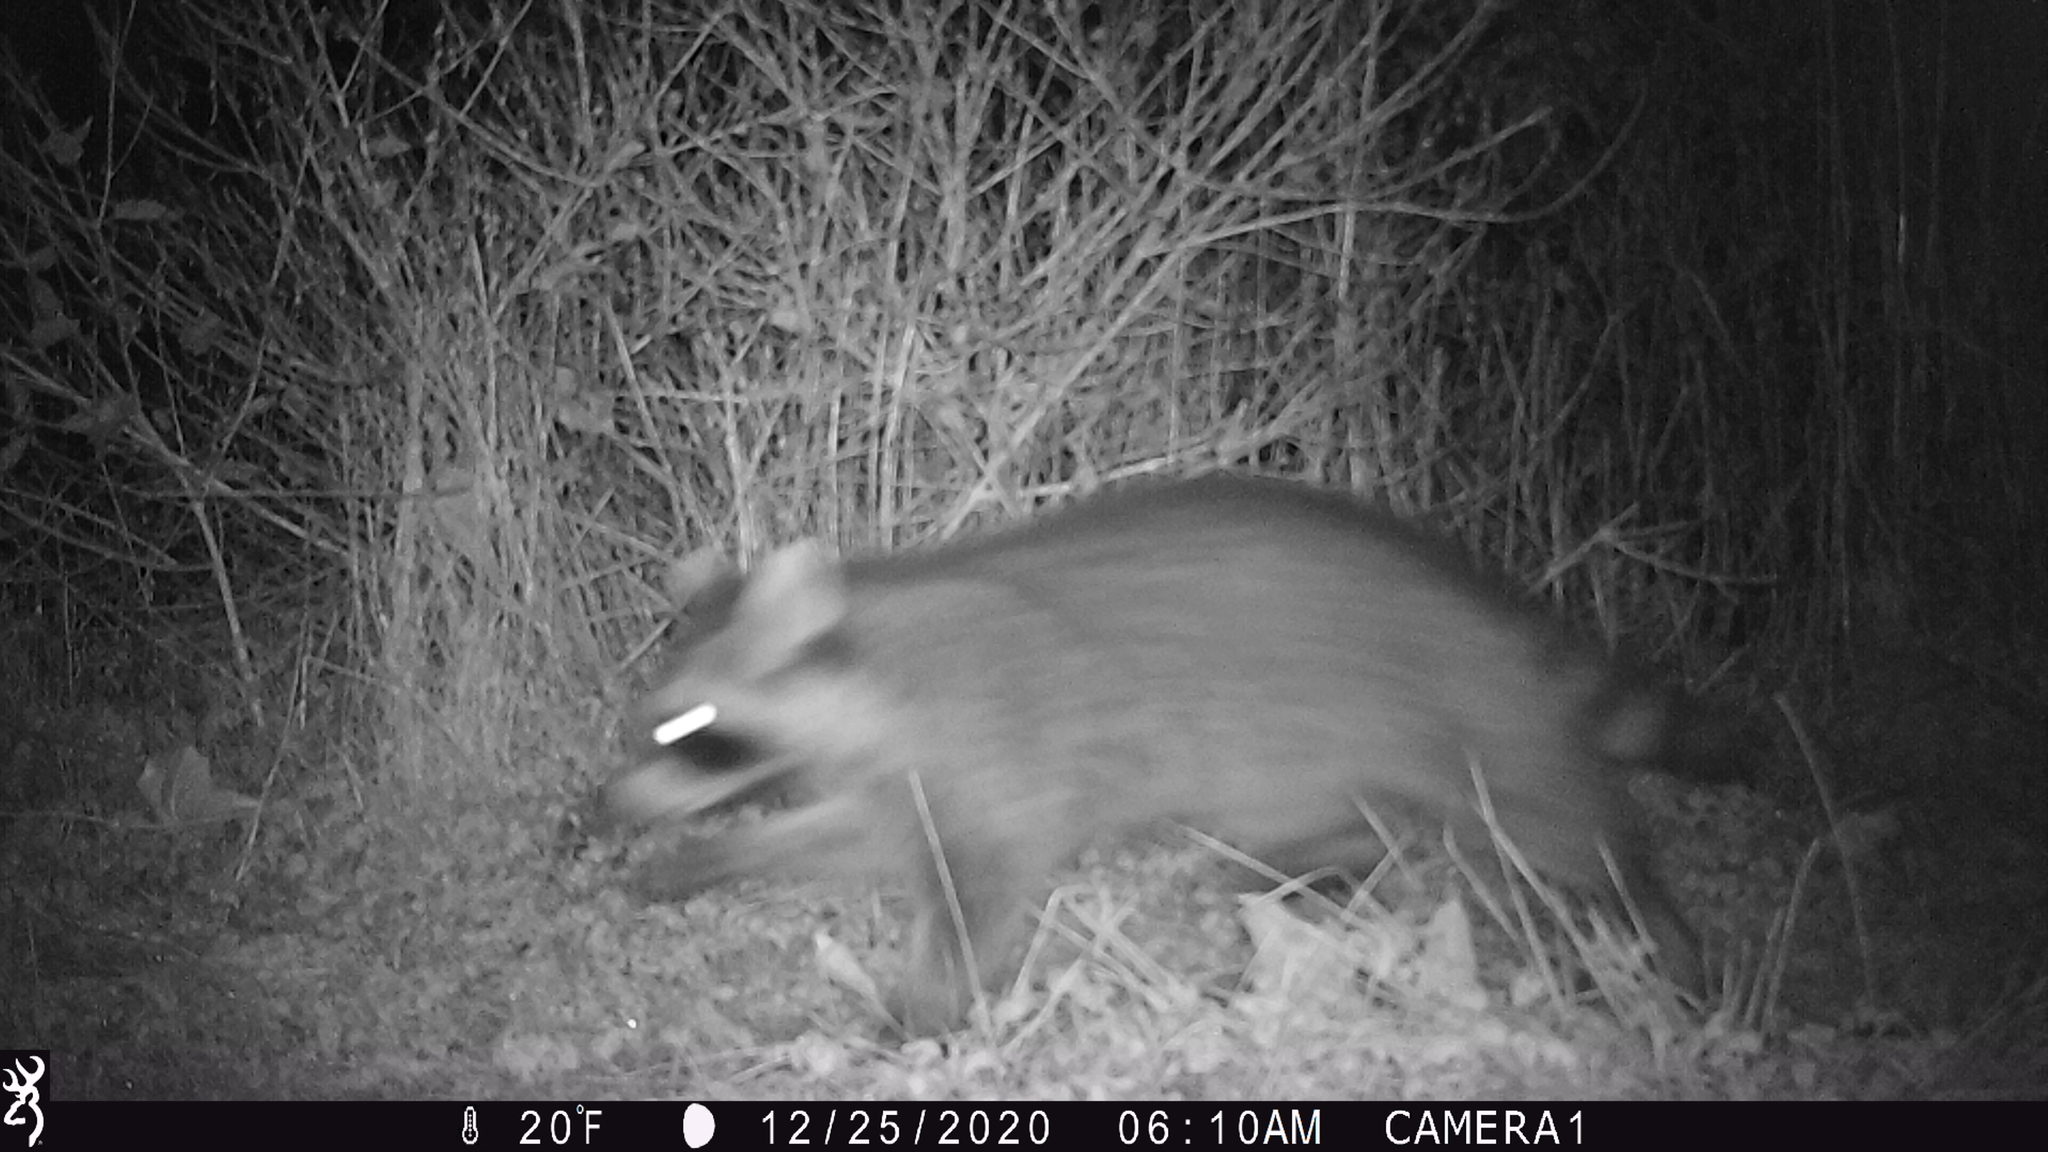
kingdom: Animalia
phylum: Chordata
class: Mammalia
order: Carnivora
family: Procyonidae
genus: Procyon
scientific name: Procyon lotor
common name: Raccoon
